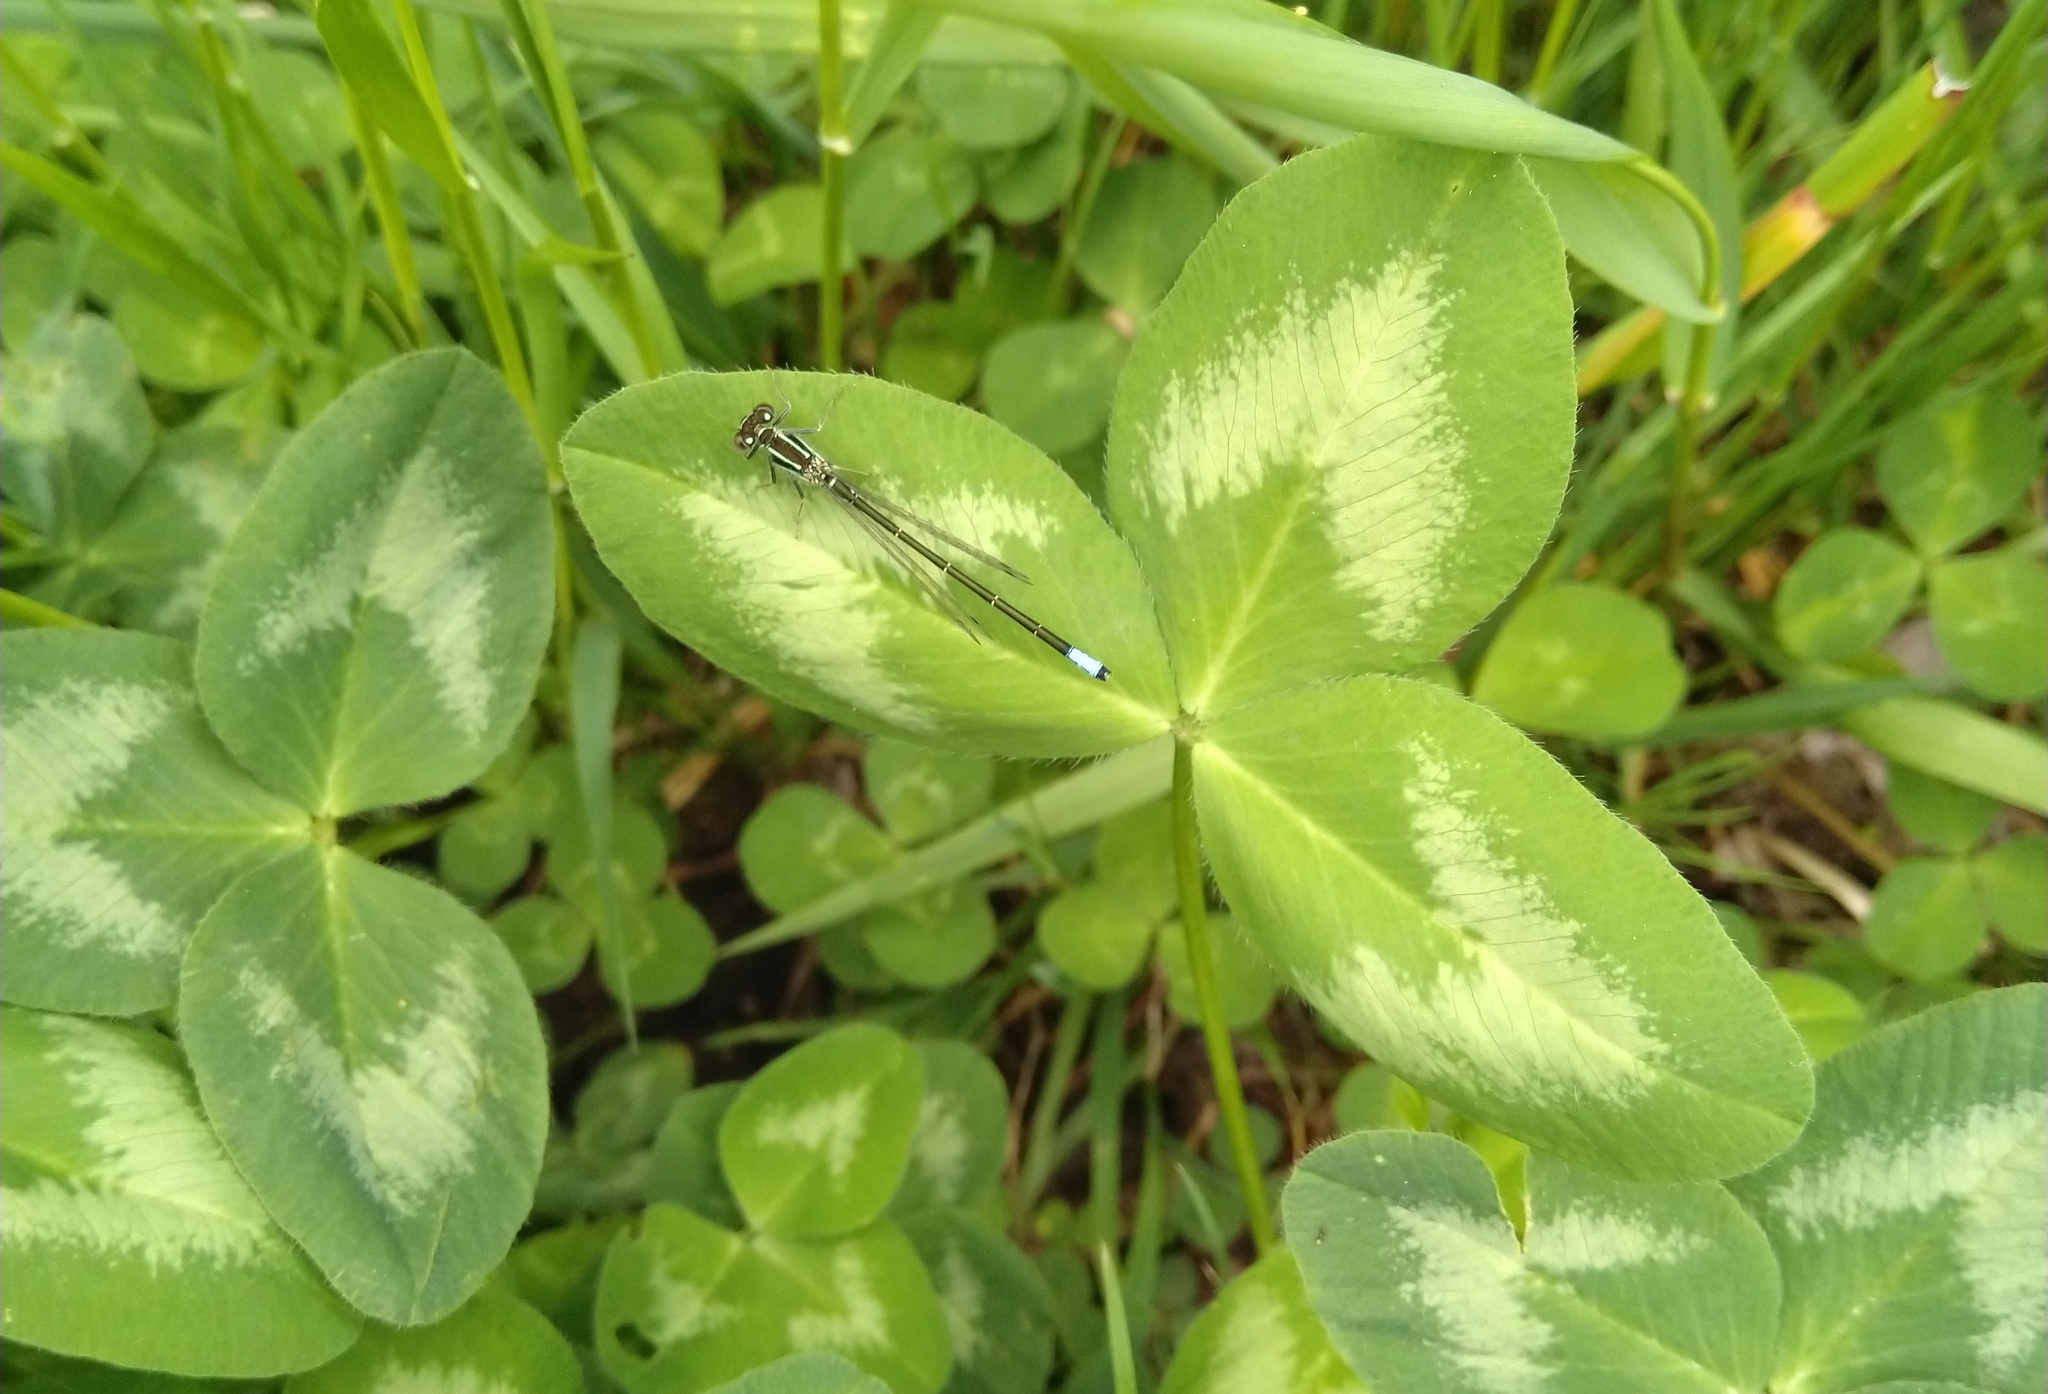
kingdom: Animalia
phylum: Arthropoda
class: Insecta
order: Odonata
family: Coenagrionidae
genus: Ischnura
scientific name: Ischnura verticalis
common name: Eastern forktail
